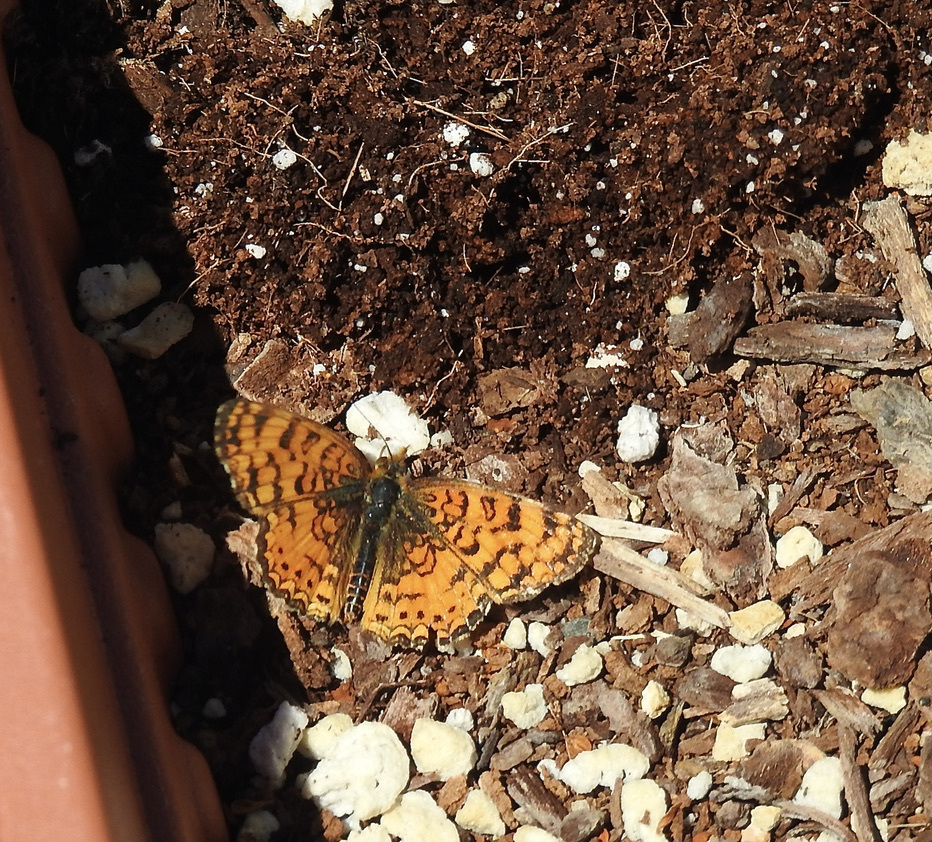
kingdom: Animalia
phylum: Arthropoda
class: Insecta
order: Lepidoptera
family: Nymphalidae
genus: Eresia
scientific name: Eresia aveyrona
